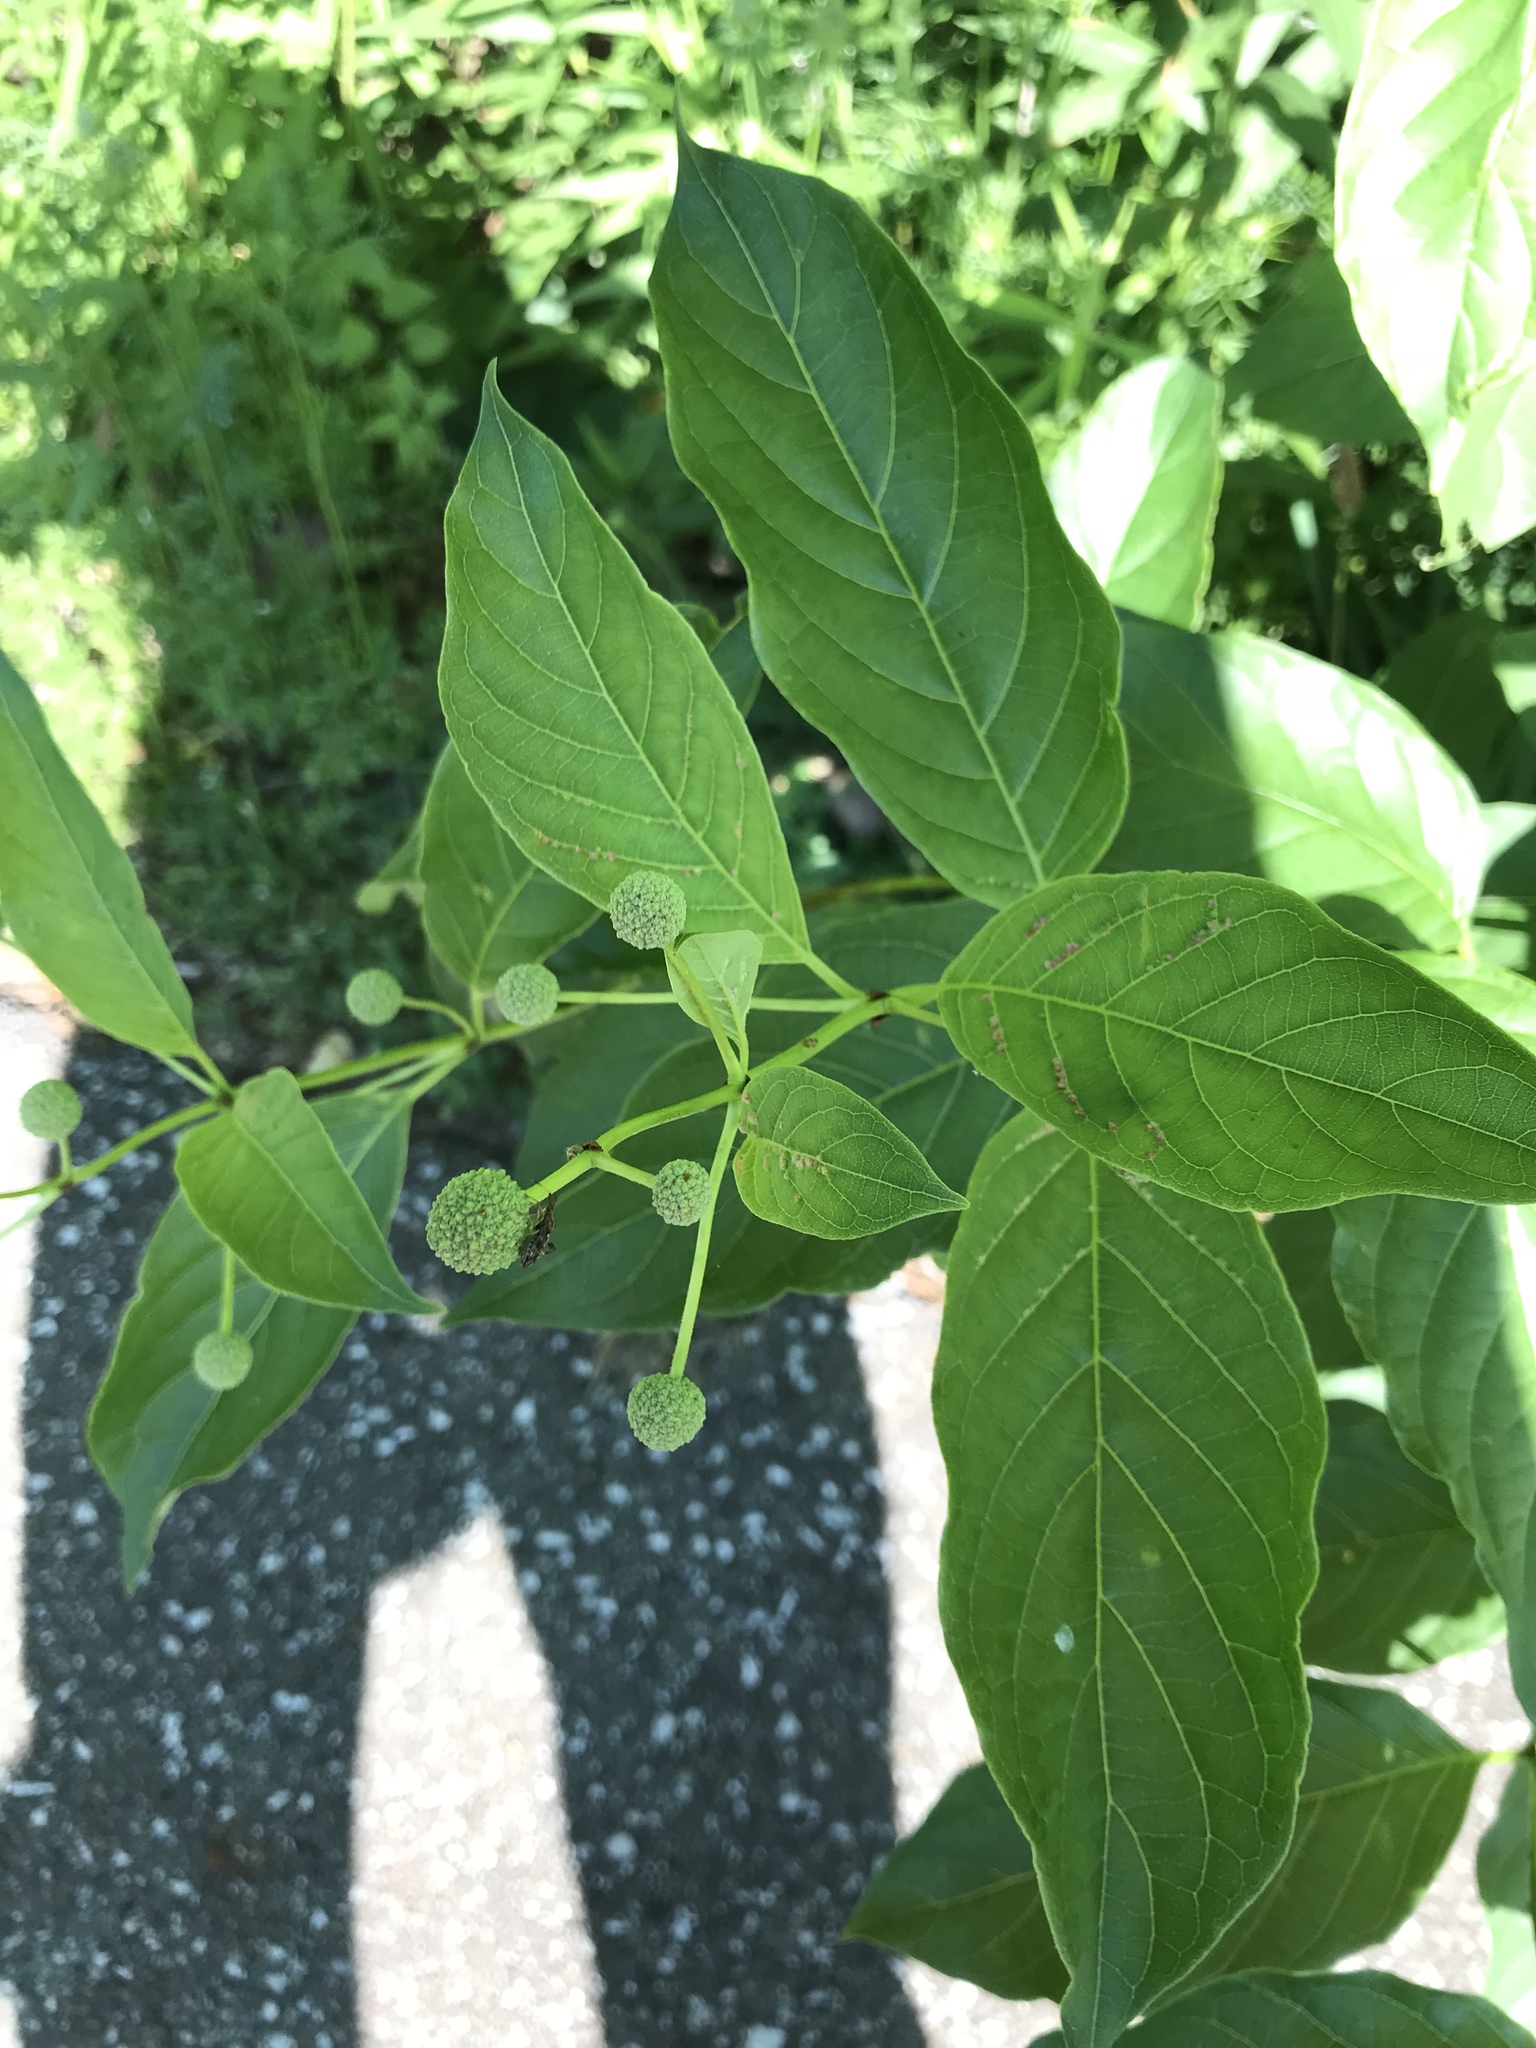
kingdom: Plantae
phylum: Tracheophyta
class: Magnoliopsida
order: Gentianales
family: Rubiaceae
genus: Cephalanthus
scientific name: Cephalanthus occidentalis
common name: Button-willow
